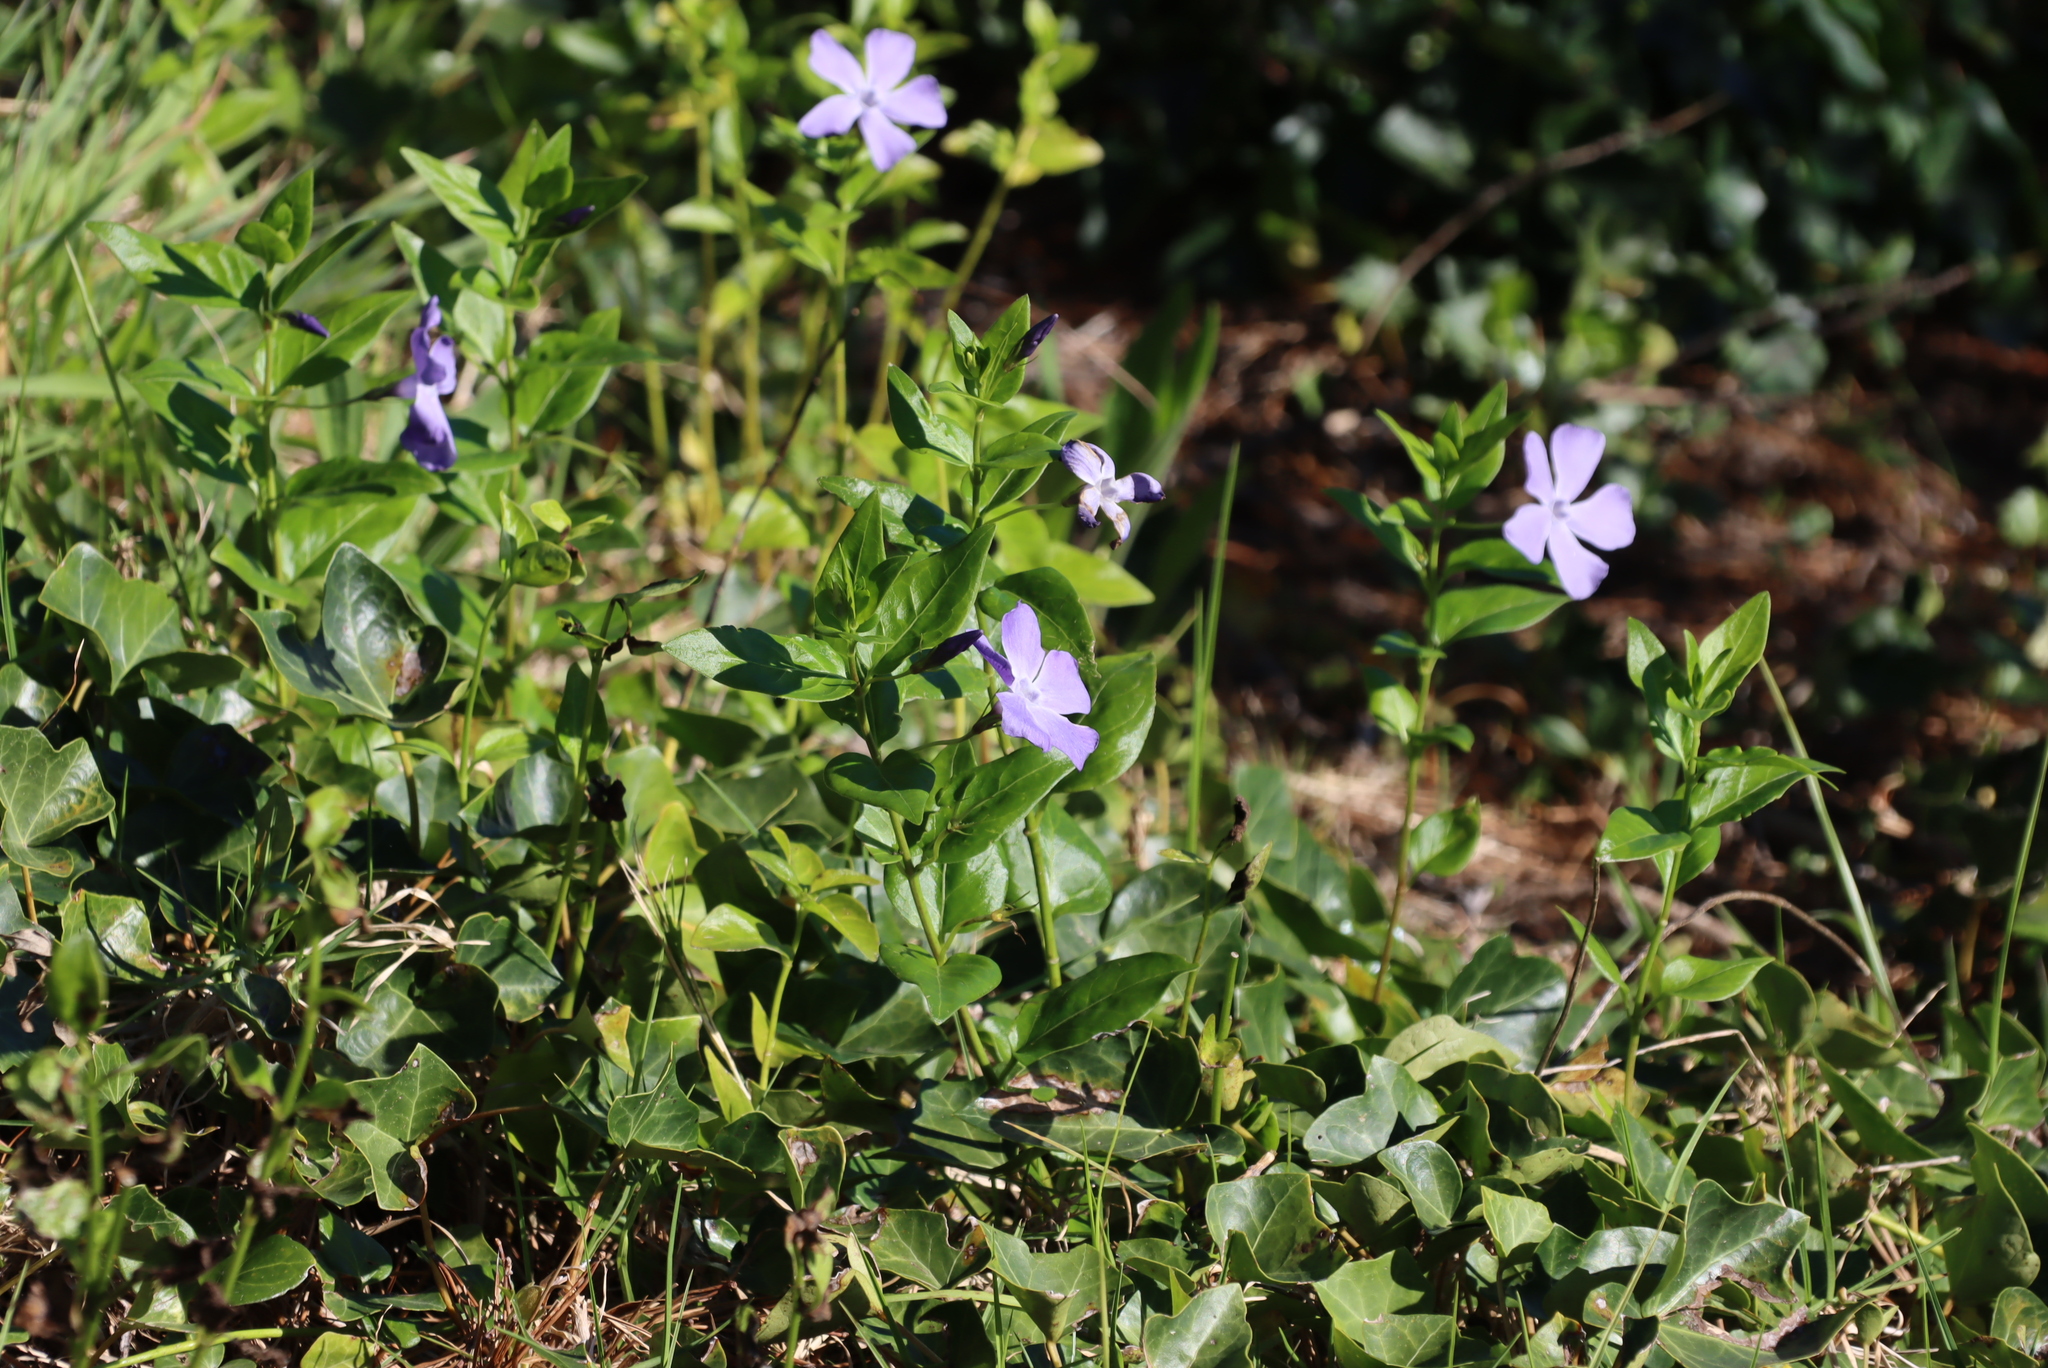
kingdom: Plantae
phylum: Tracheophyta
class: Magnoliopsida
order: Gentianales
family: Apocynaceae
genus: Vinca
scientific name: Vinca major
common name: Greater periwinkle
